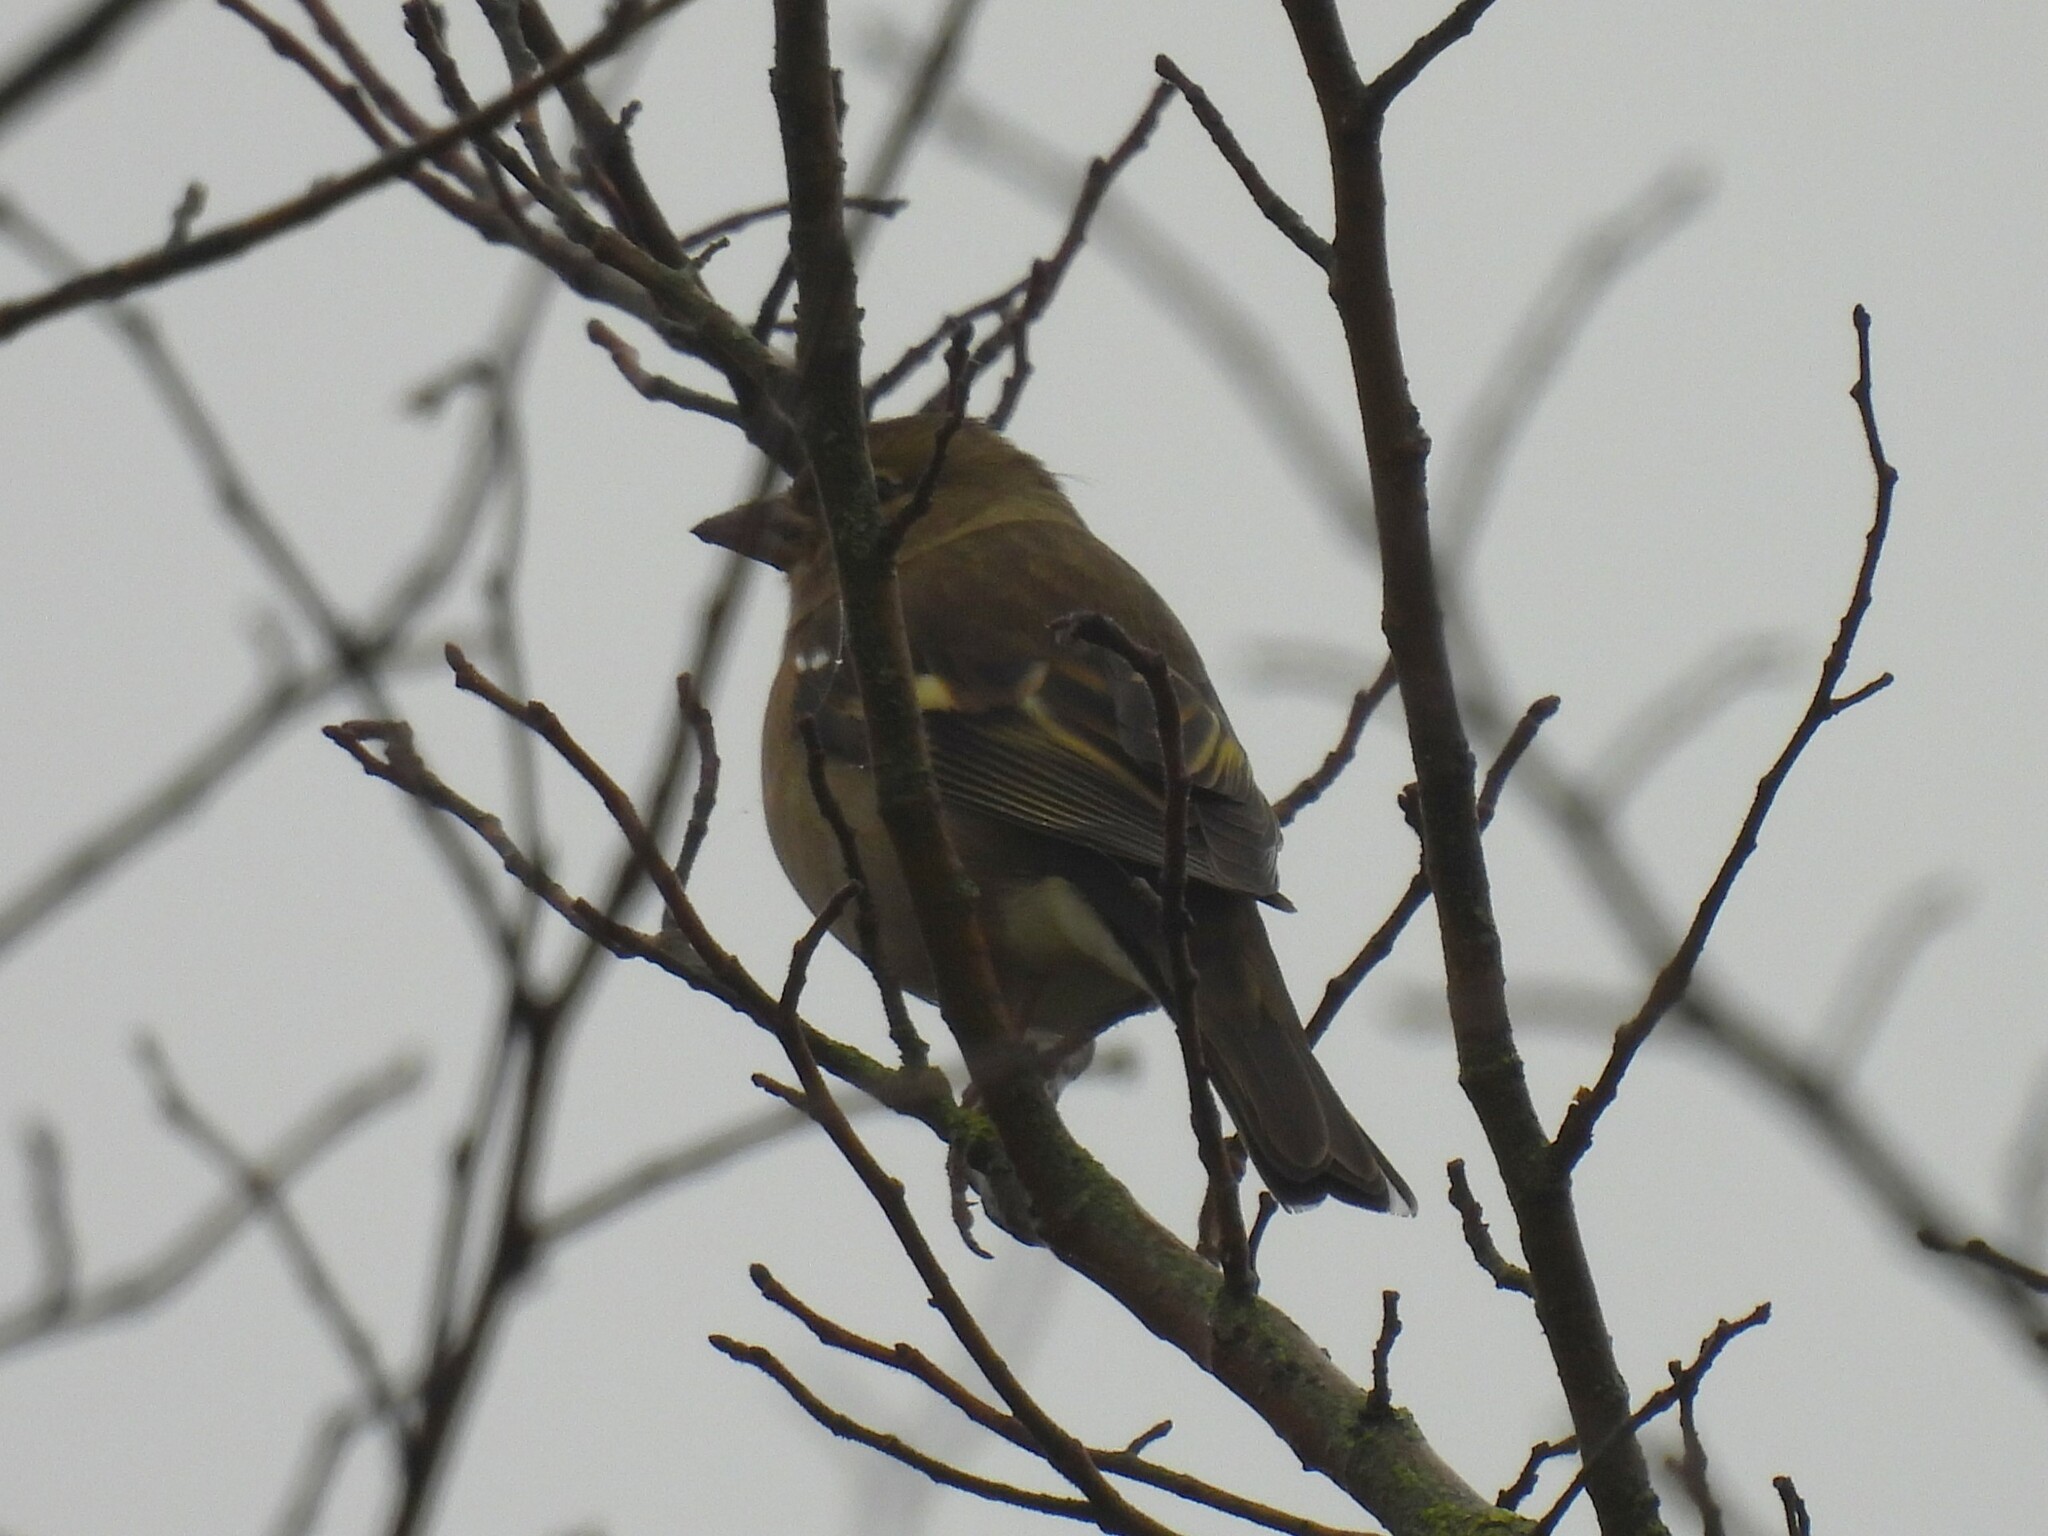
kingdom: Animalia
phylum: Chordata
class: Aves
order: Passeriformes
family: Fringillidae
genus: Fringilla
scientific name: Fringilla coelebs
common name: Common chaffinch
